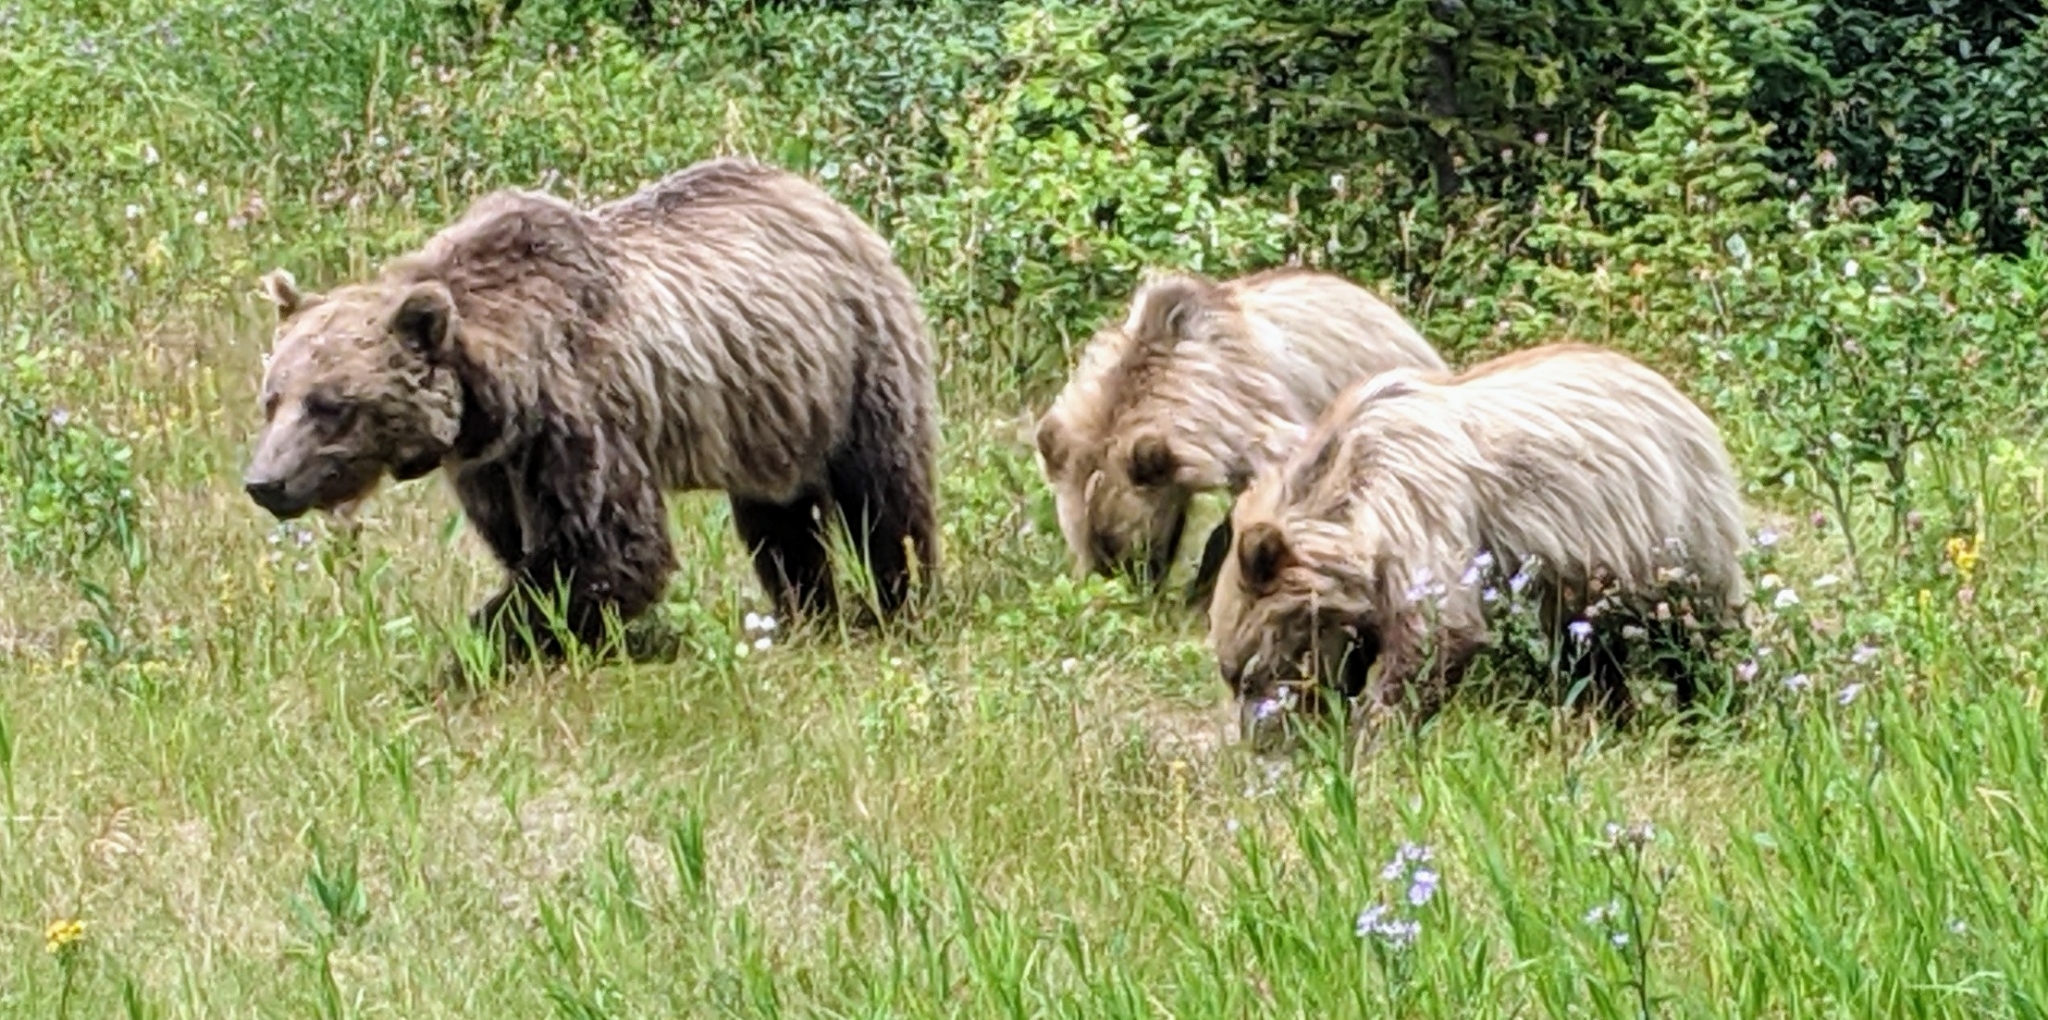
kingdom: Animalia
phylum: Chordata
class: Mammalia
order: Carnivora
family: Ursidae
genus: Ursus
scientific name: Ursus arctos
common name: Brown bear
